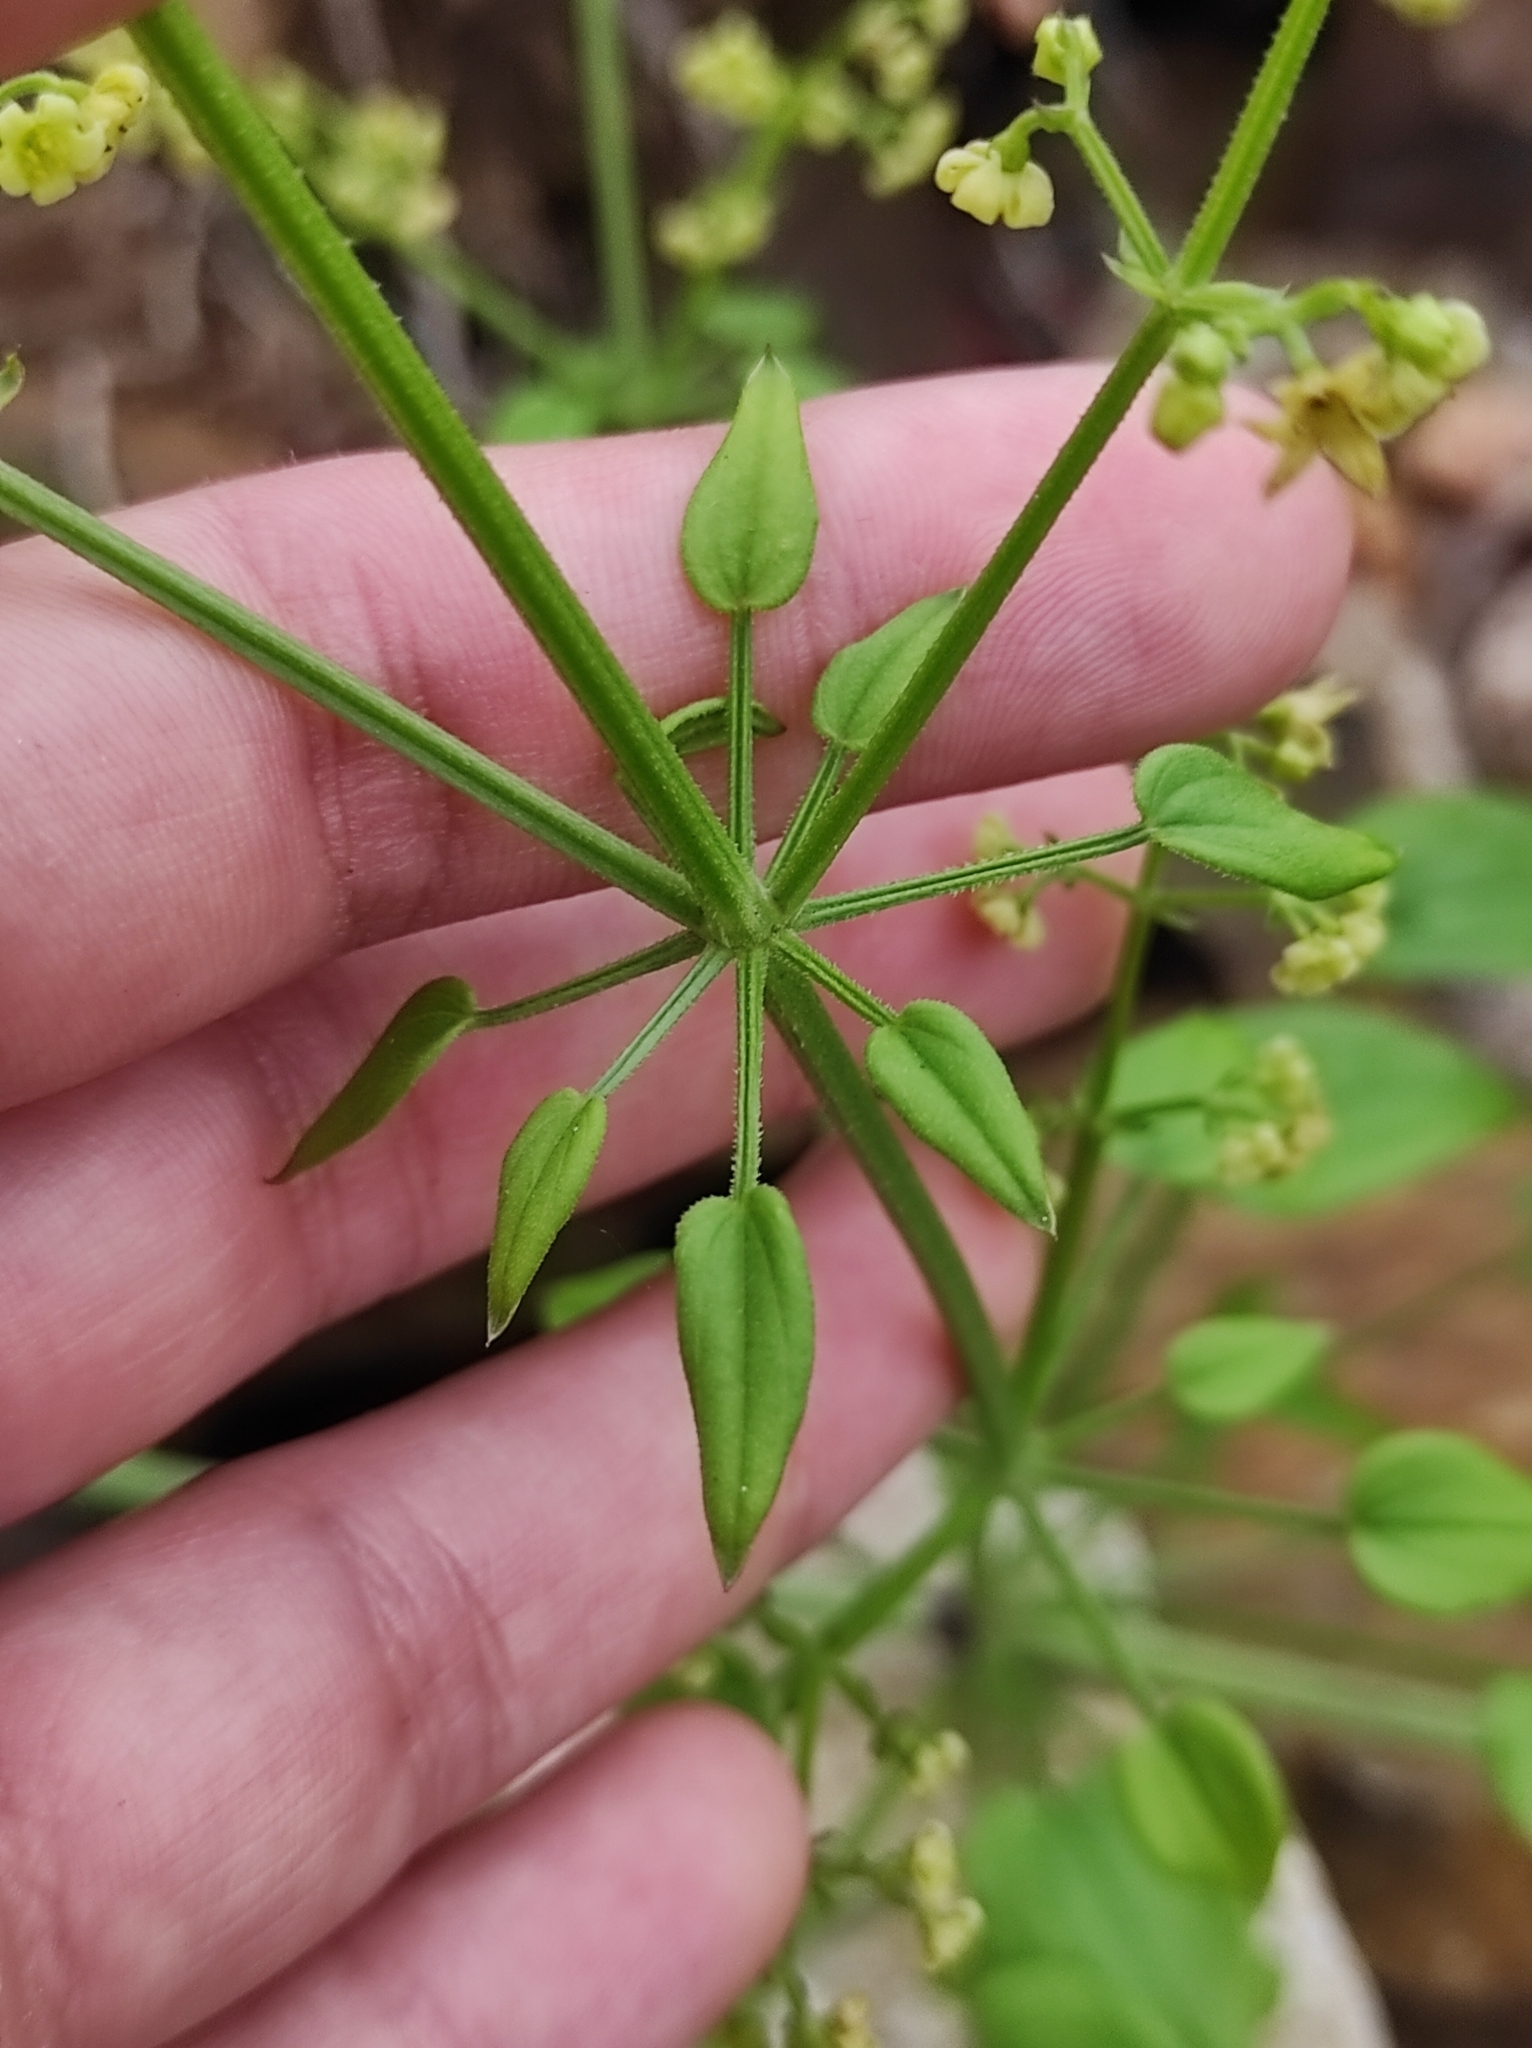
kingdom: Plantae
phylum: Tracheophyta
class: Magnoliopsida
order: Gentianales
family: Rubiaceae
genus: Rubia
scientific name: Rubia cordifolia
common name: Indian madder
